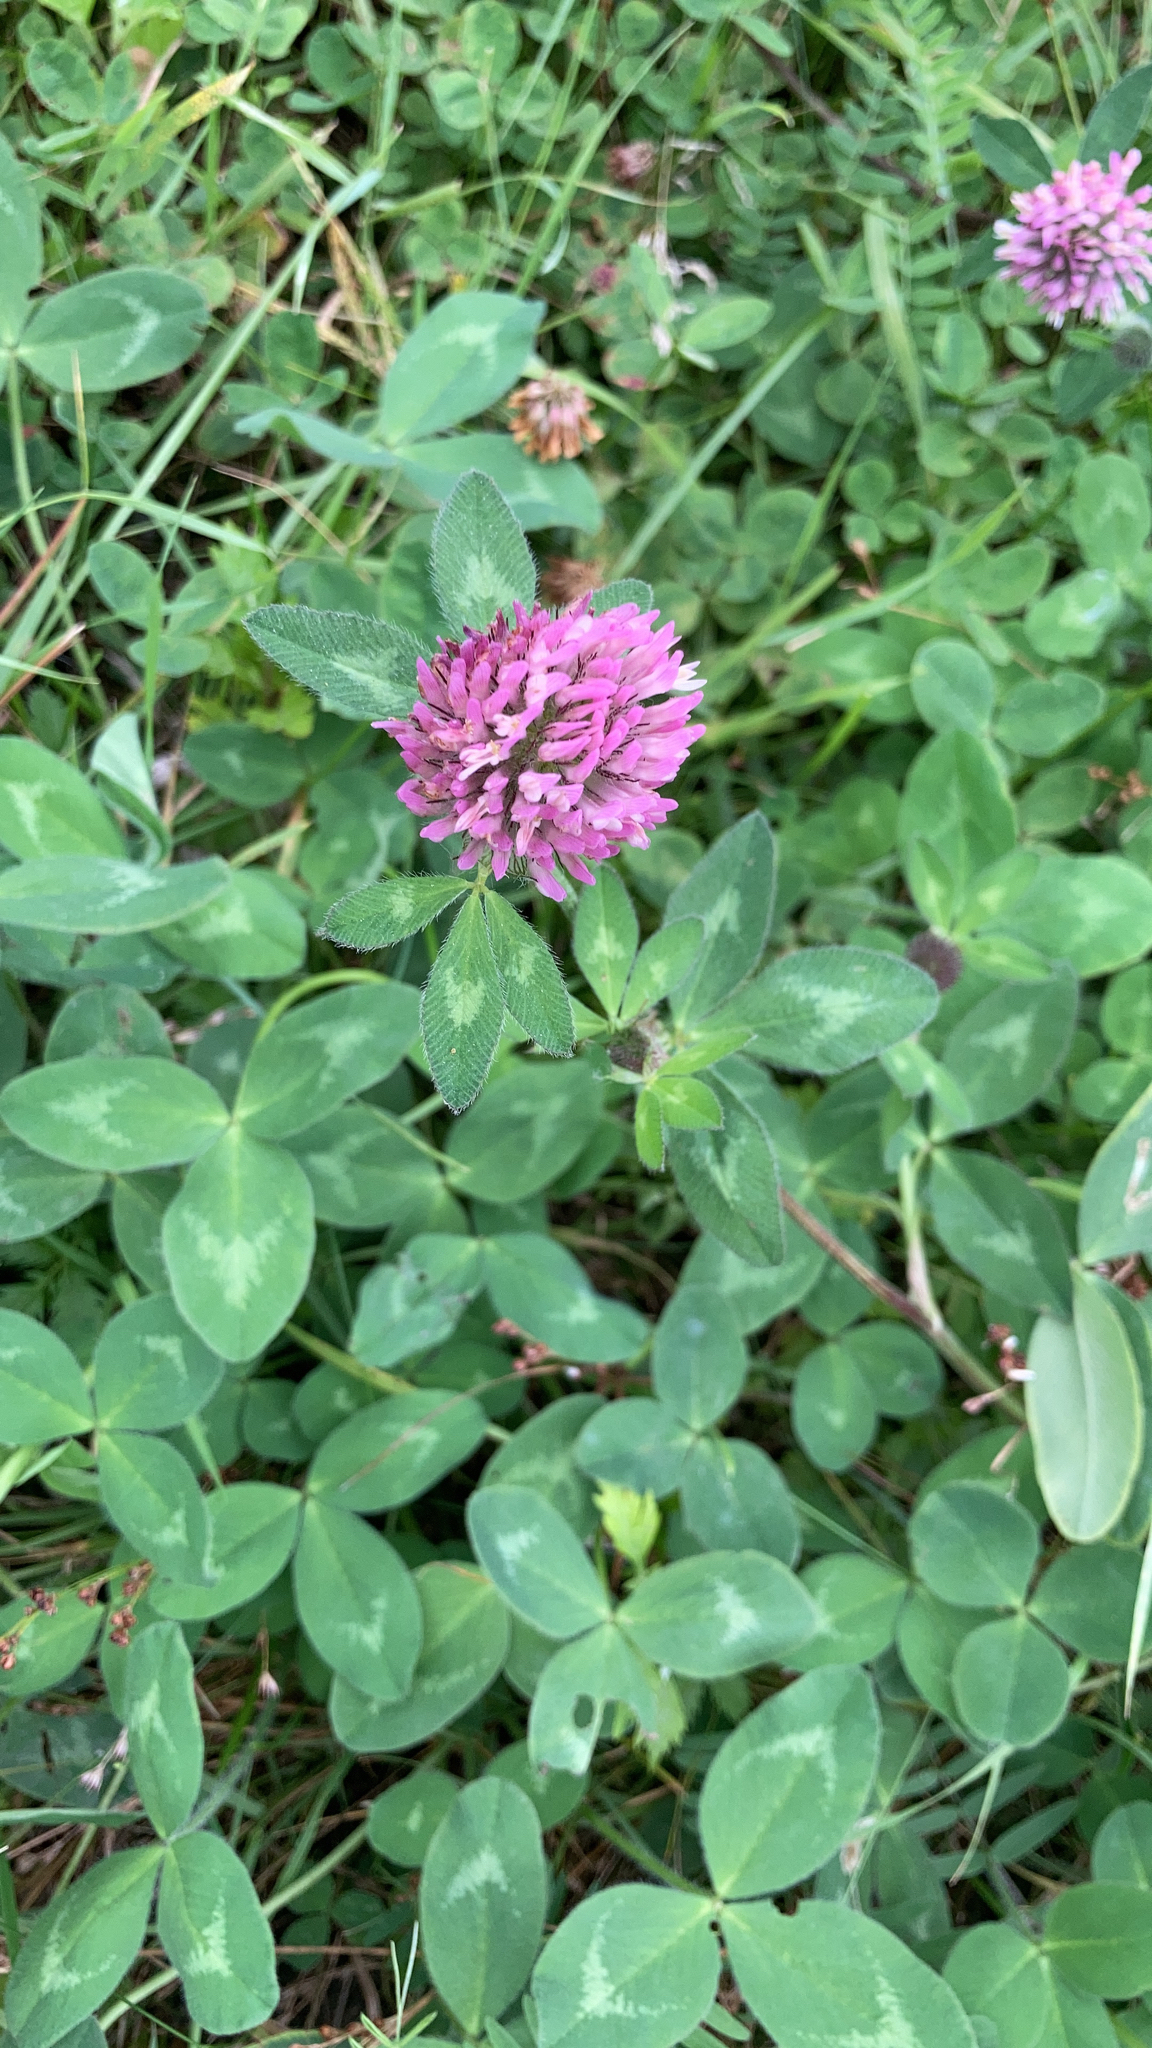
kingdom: Plantae
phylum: Tracheophyta
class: Magnoliopsida
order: Fabales
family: Fabaceae
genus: Trifolium
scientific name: Trifolium pratense
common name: Red clover
